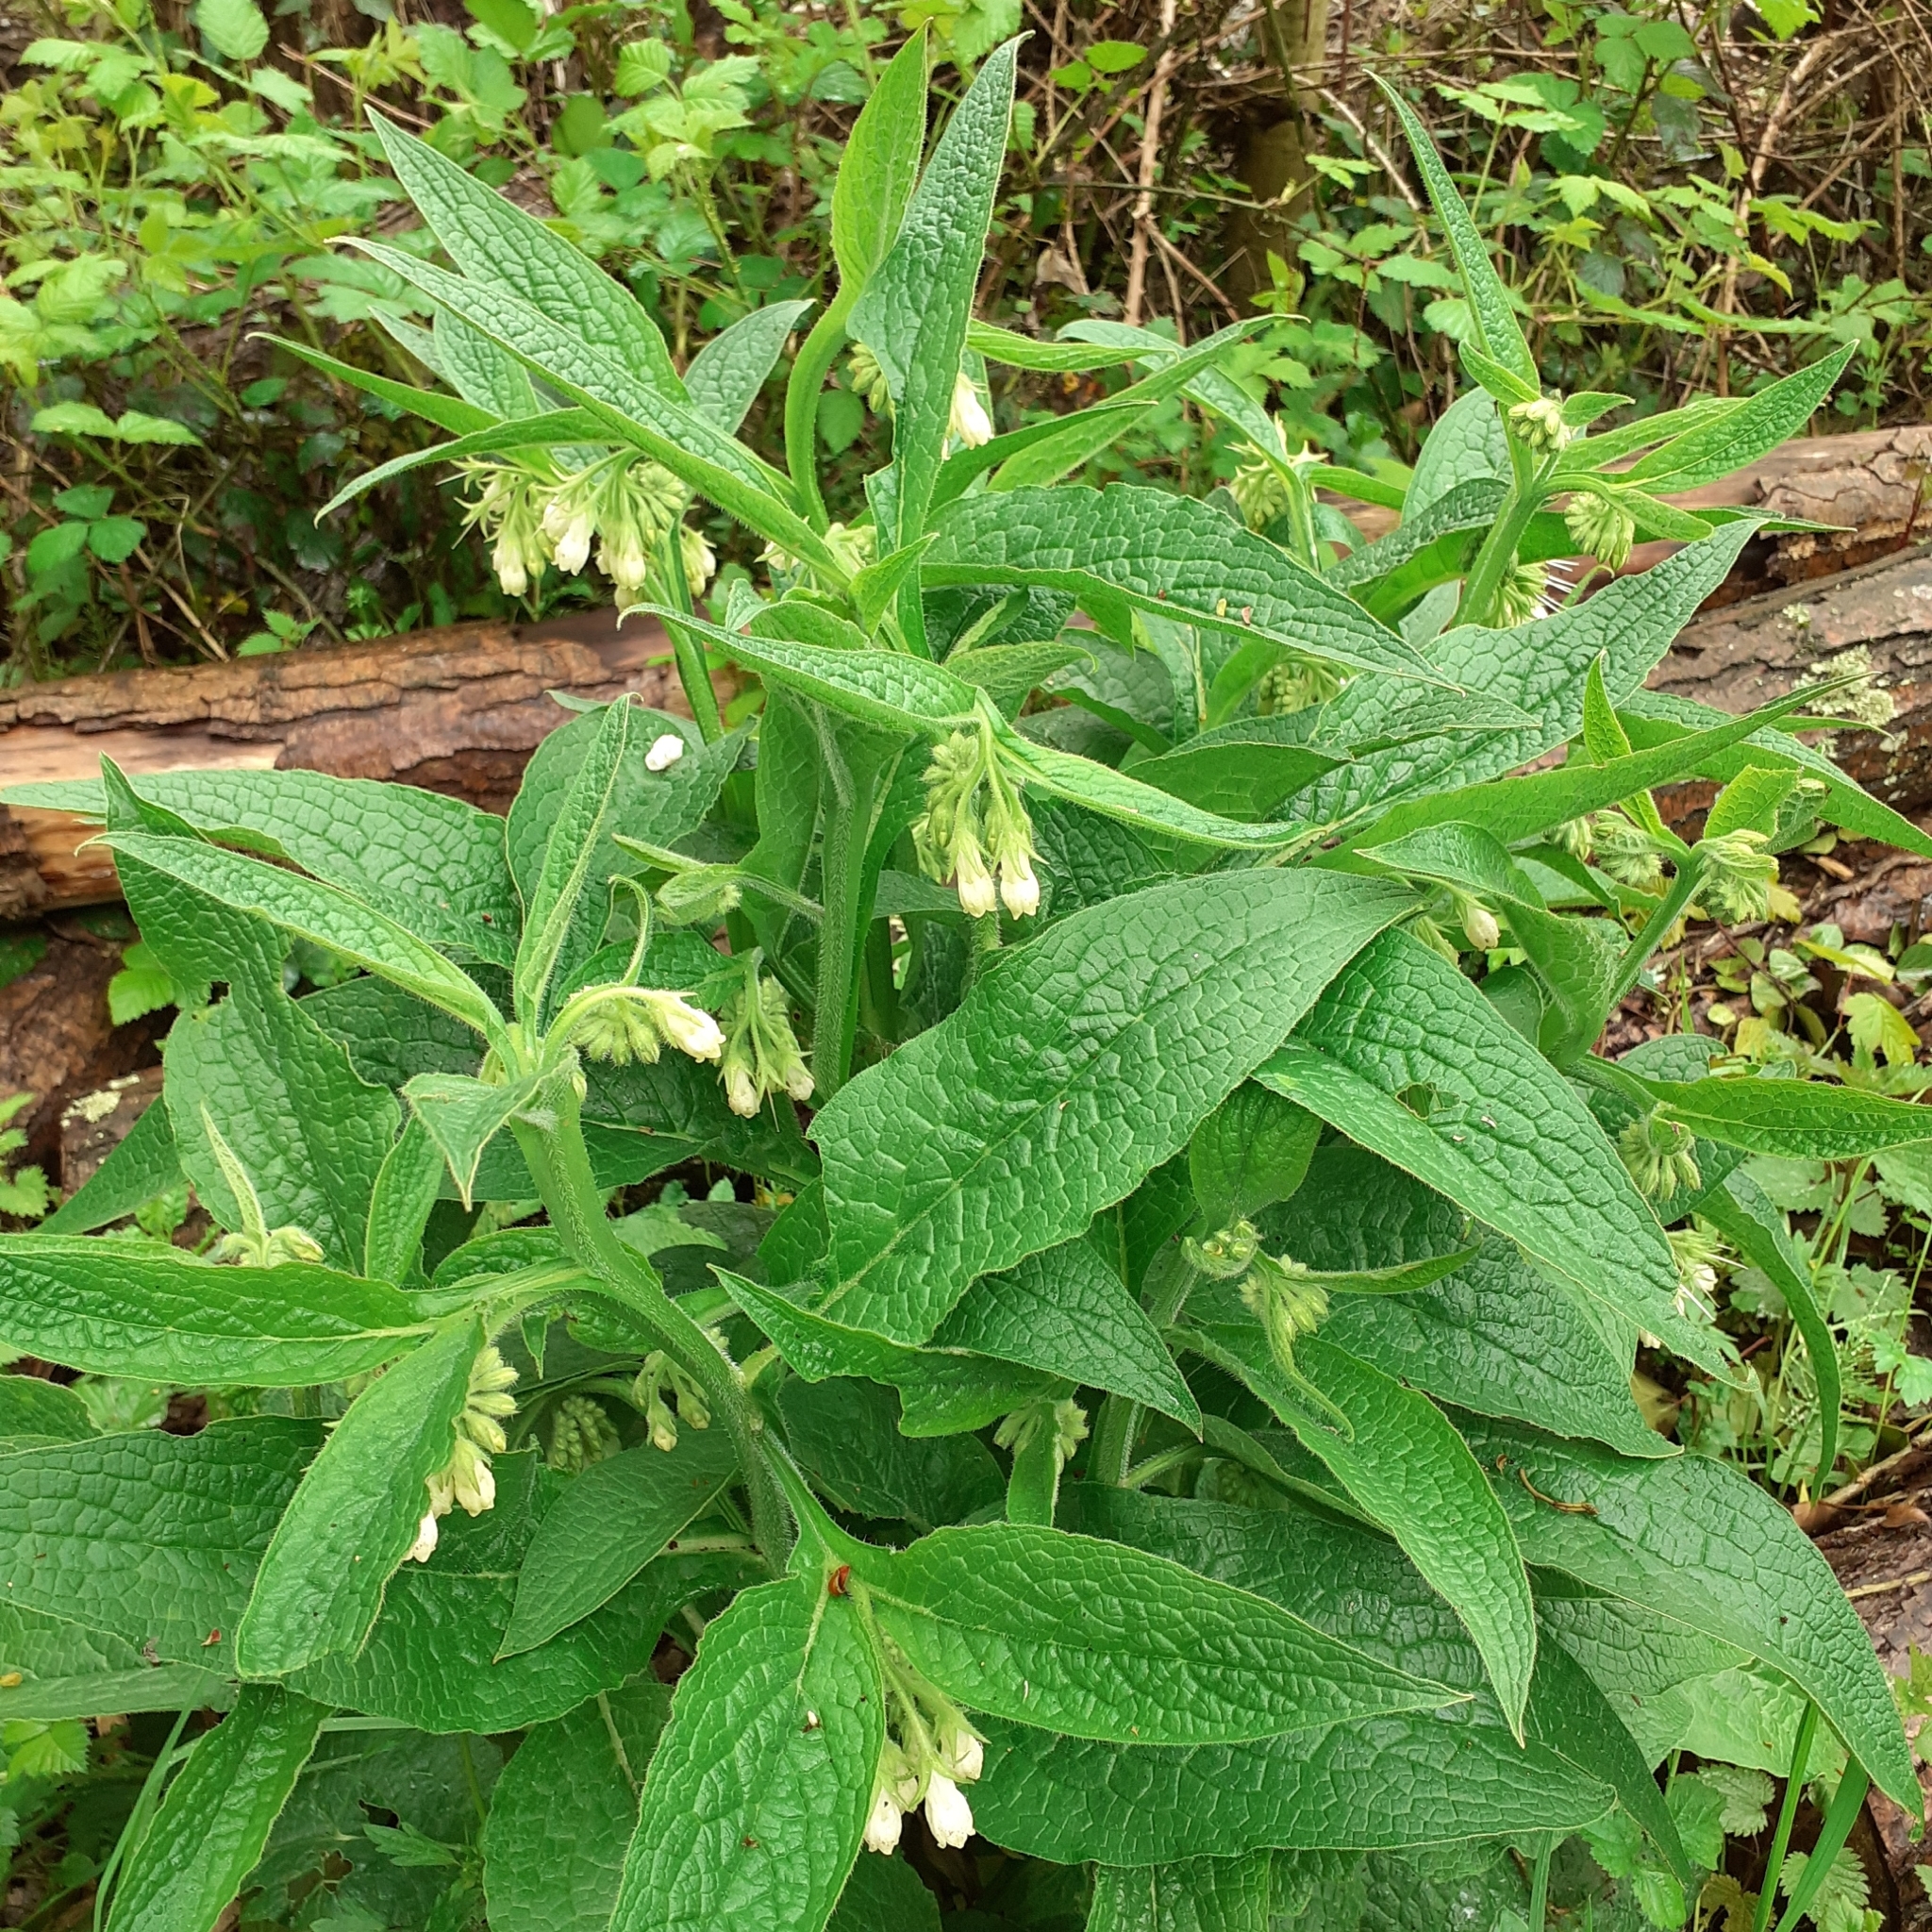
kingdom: Plantae
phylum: Tracheophyta
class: Magnoliopsida
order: Boraginales
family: Boraginaceae
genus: Symphytum
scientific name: Symphytum officinale
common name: Common comfrey
